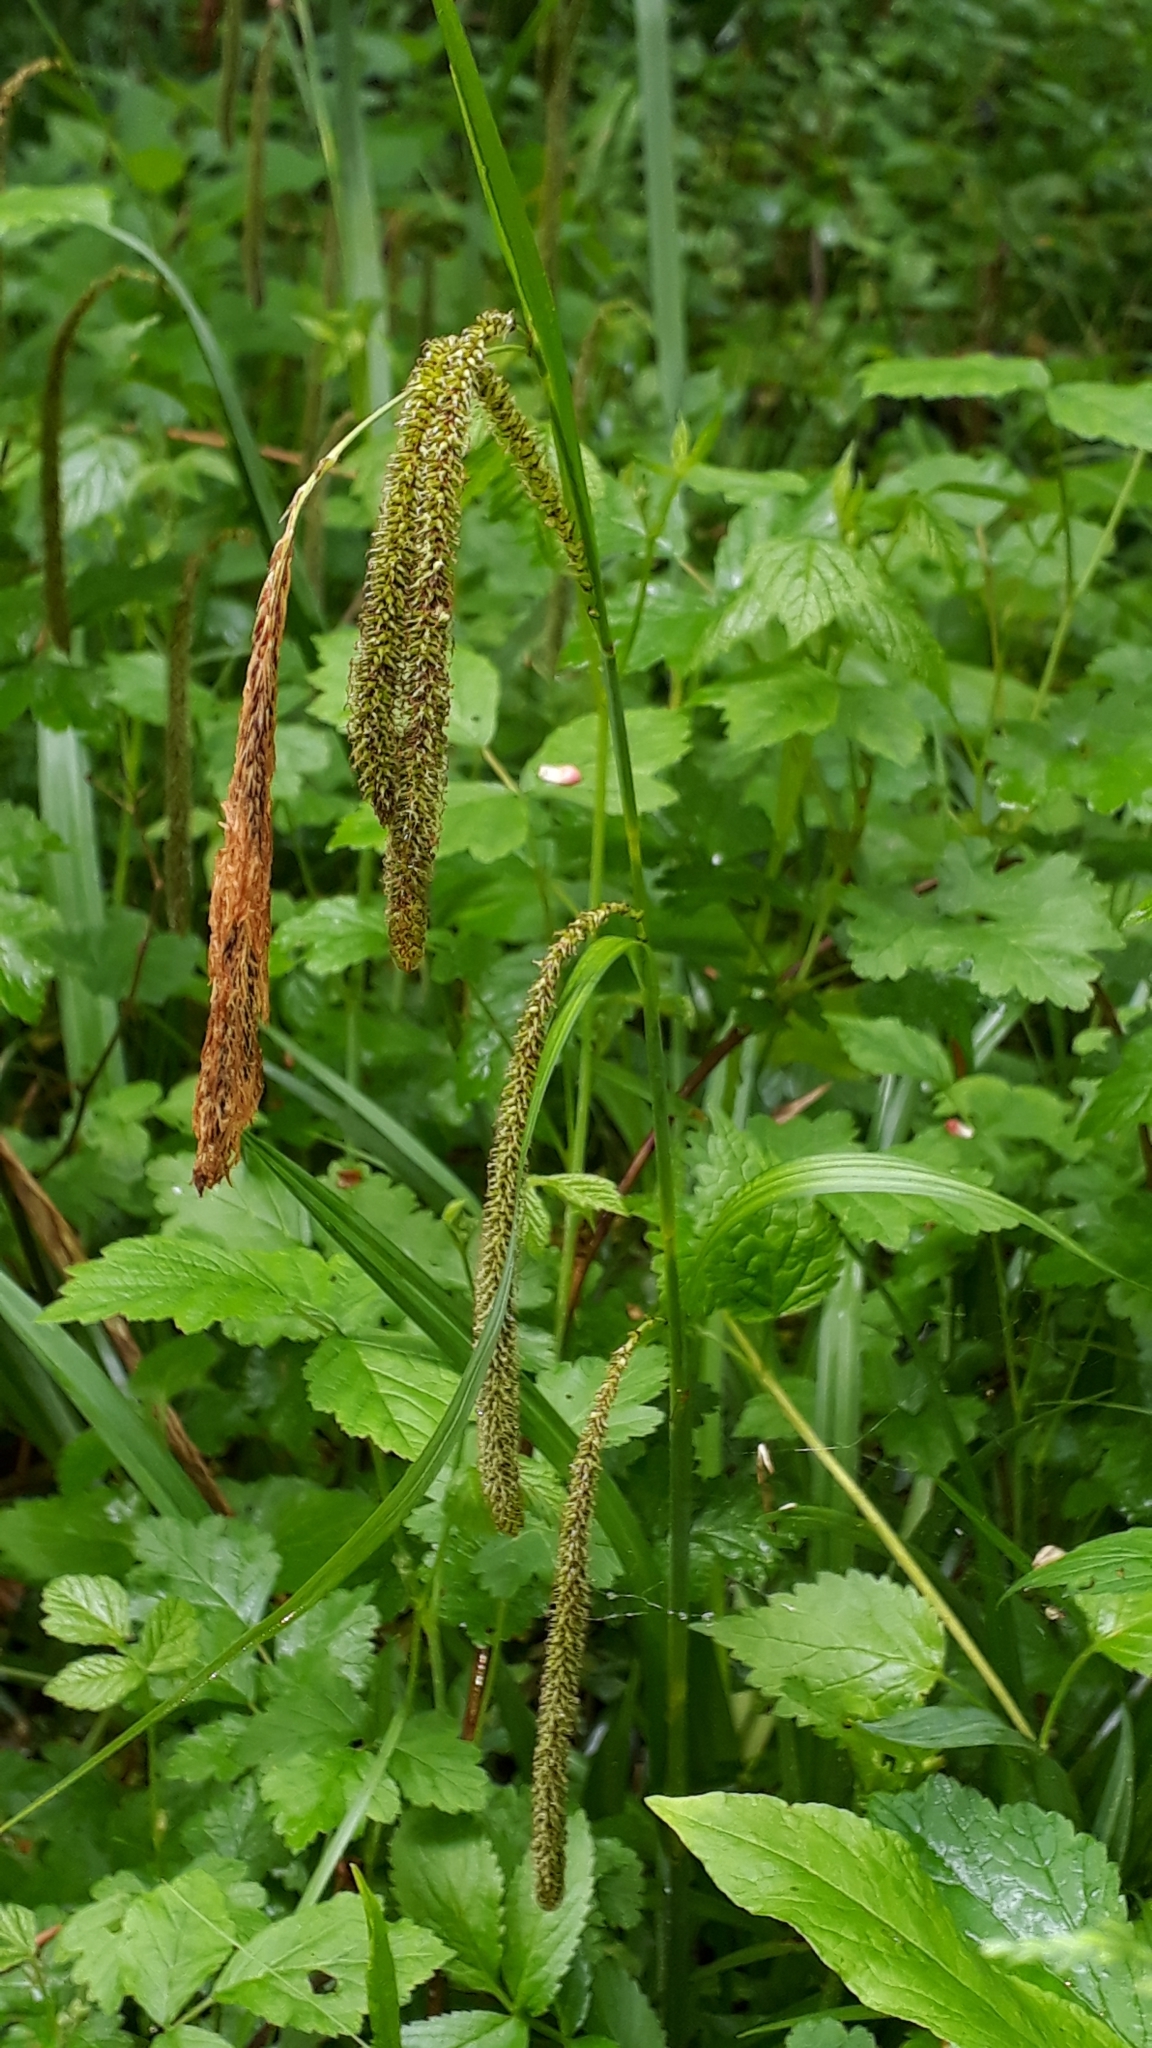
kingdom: Plantae
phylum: Tracheophyta
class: Liliopsida
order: Poales
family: Cyperaceae
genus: Carex
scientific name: Carex pendula
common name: Pendulous sedge
